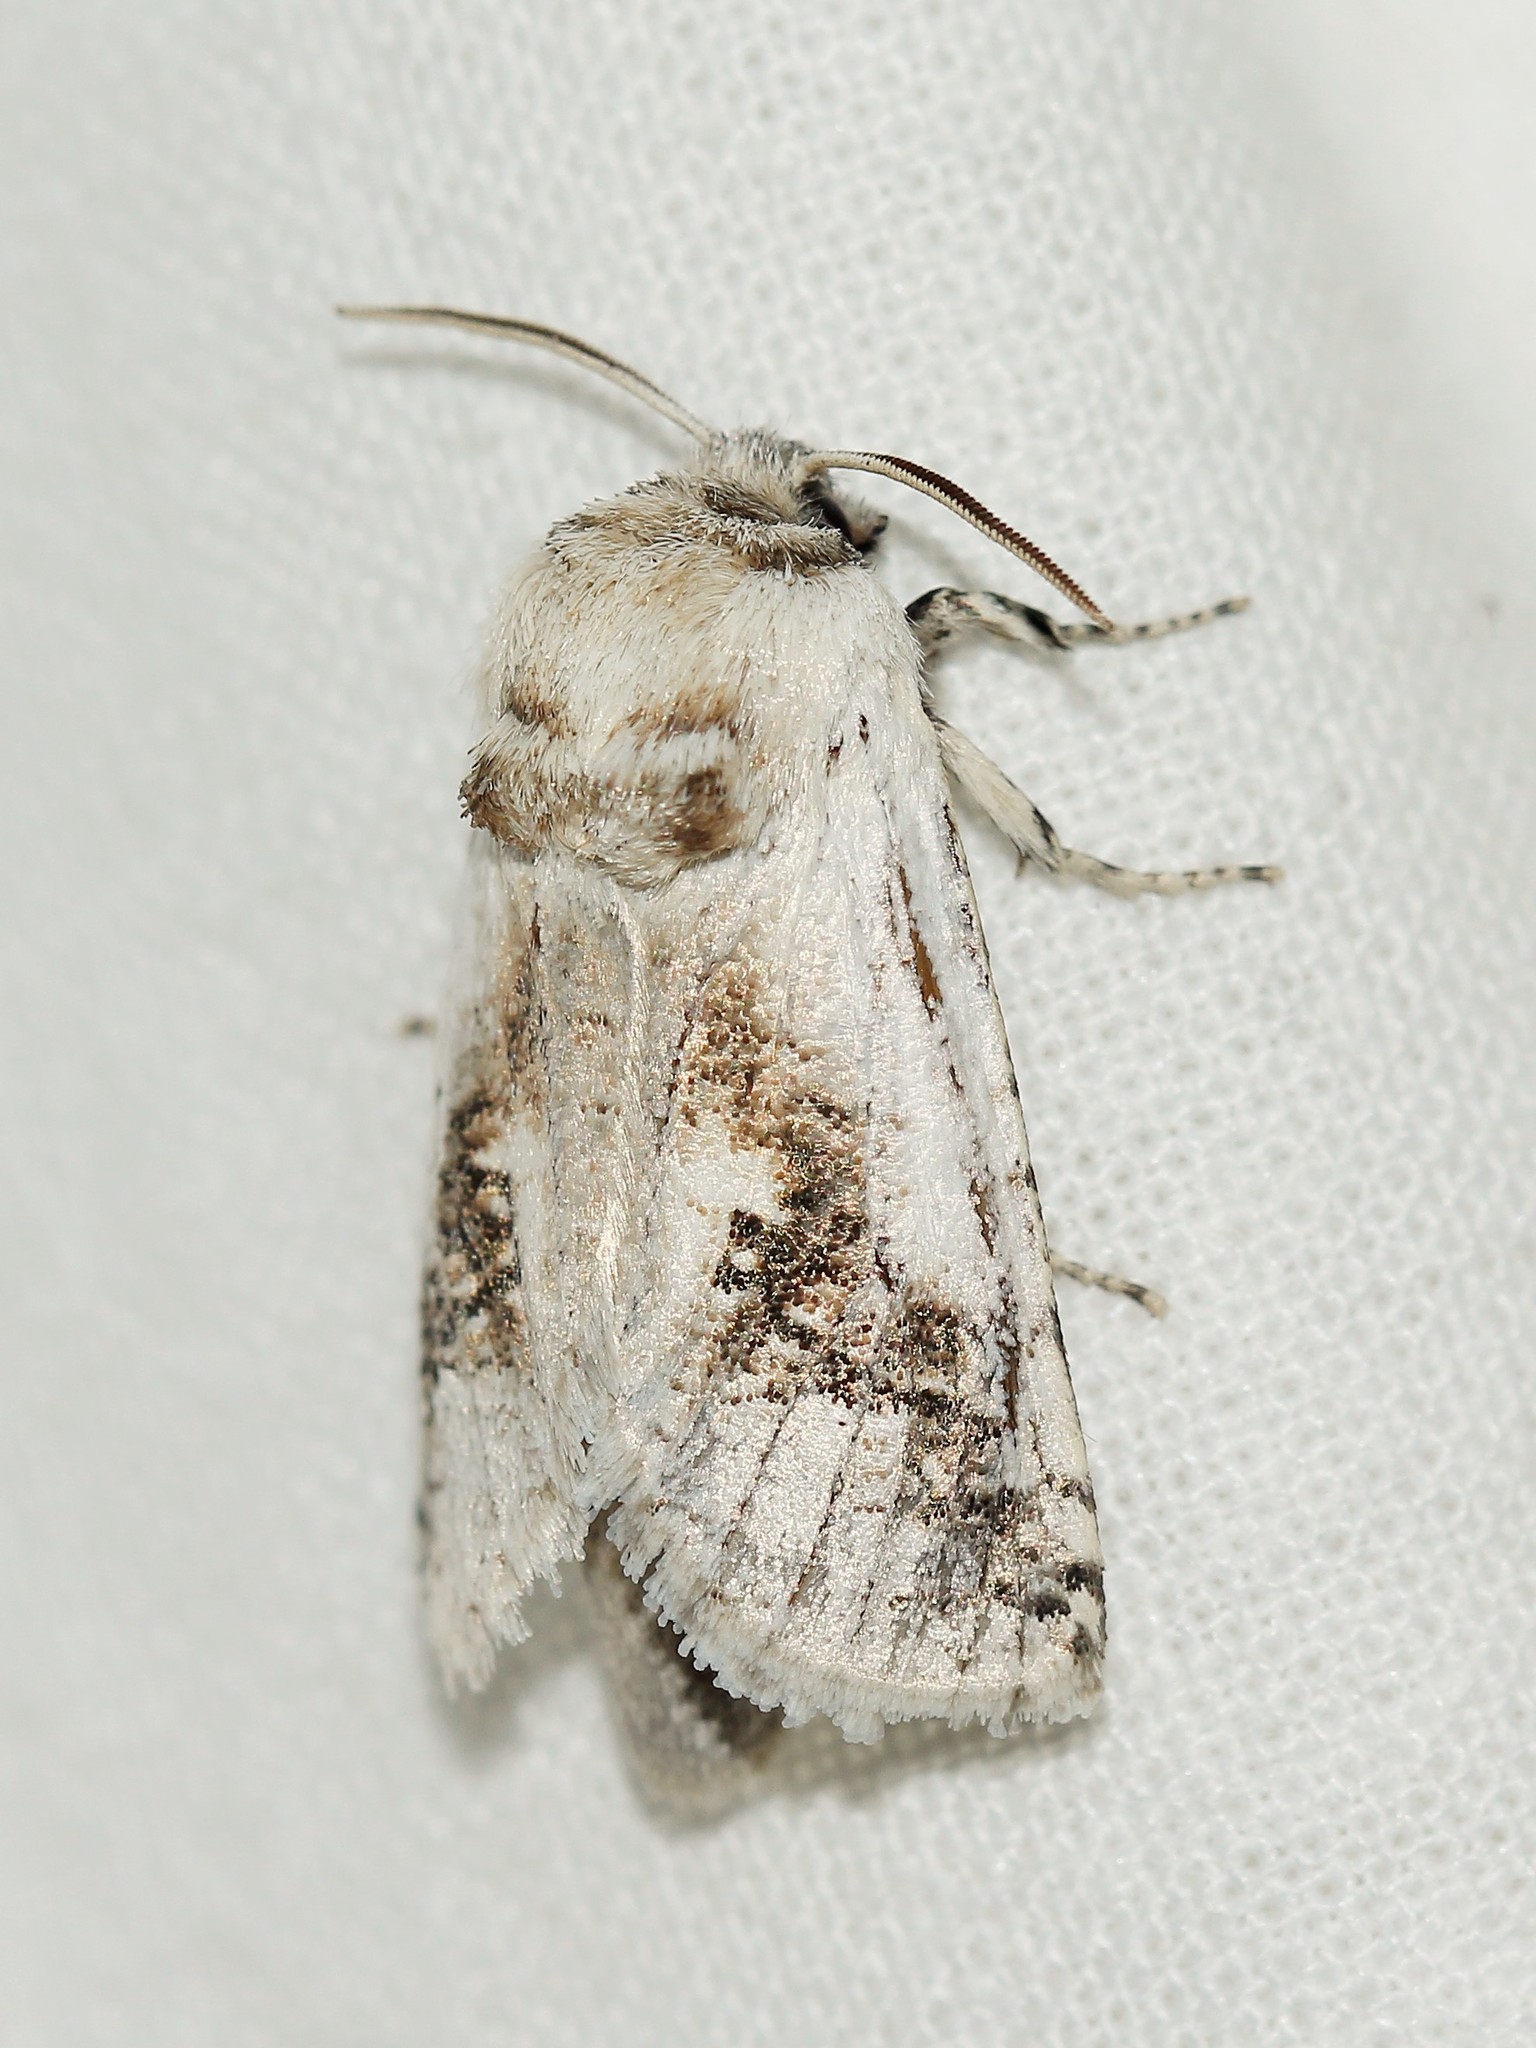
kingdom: Animalia
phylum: Arthropoda
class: Insecta
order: Lepidoptera
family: Cossidae
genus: Parahypopta
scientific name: Parahypopta caestrum
